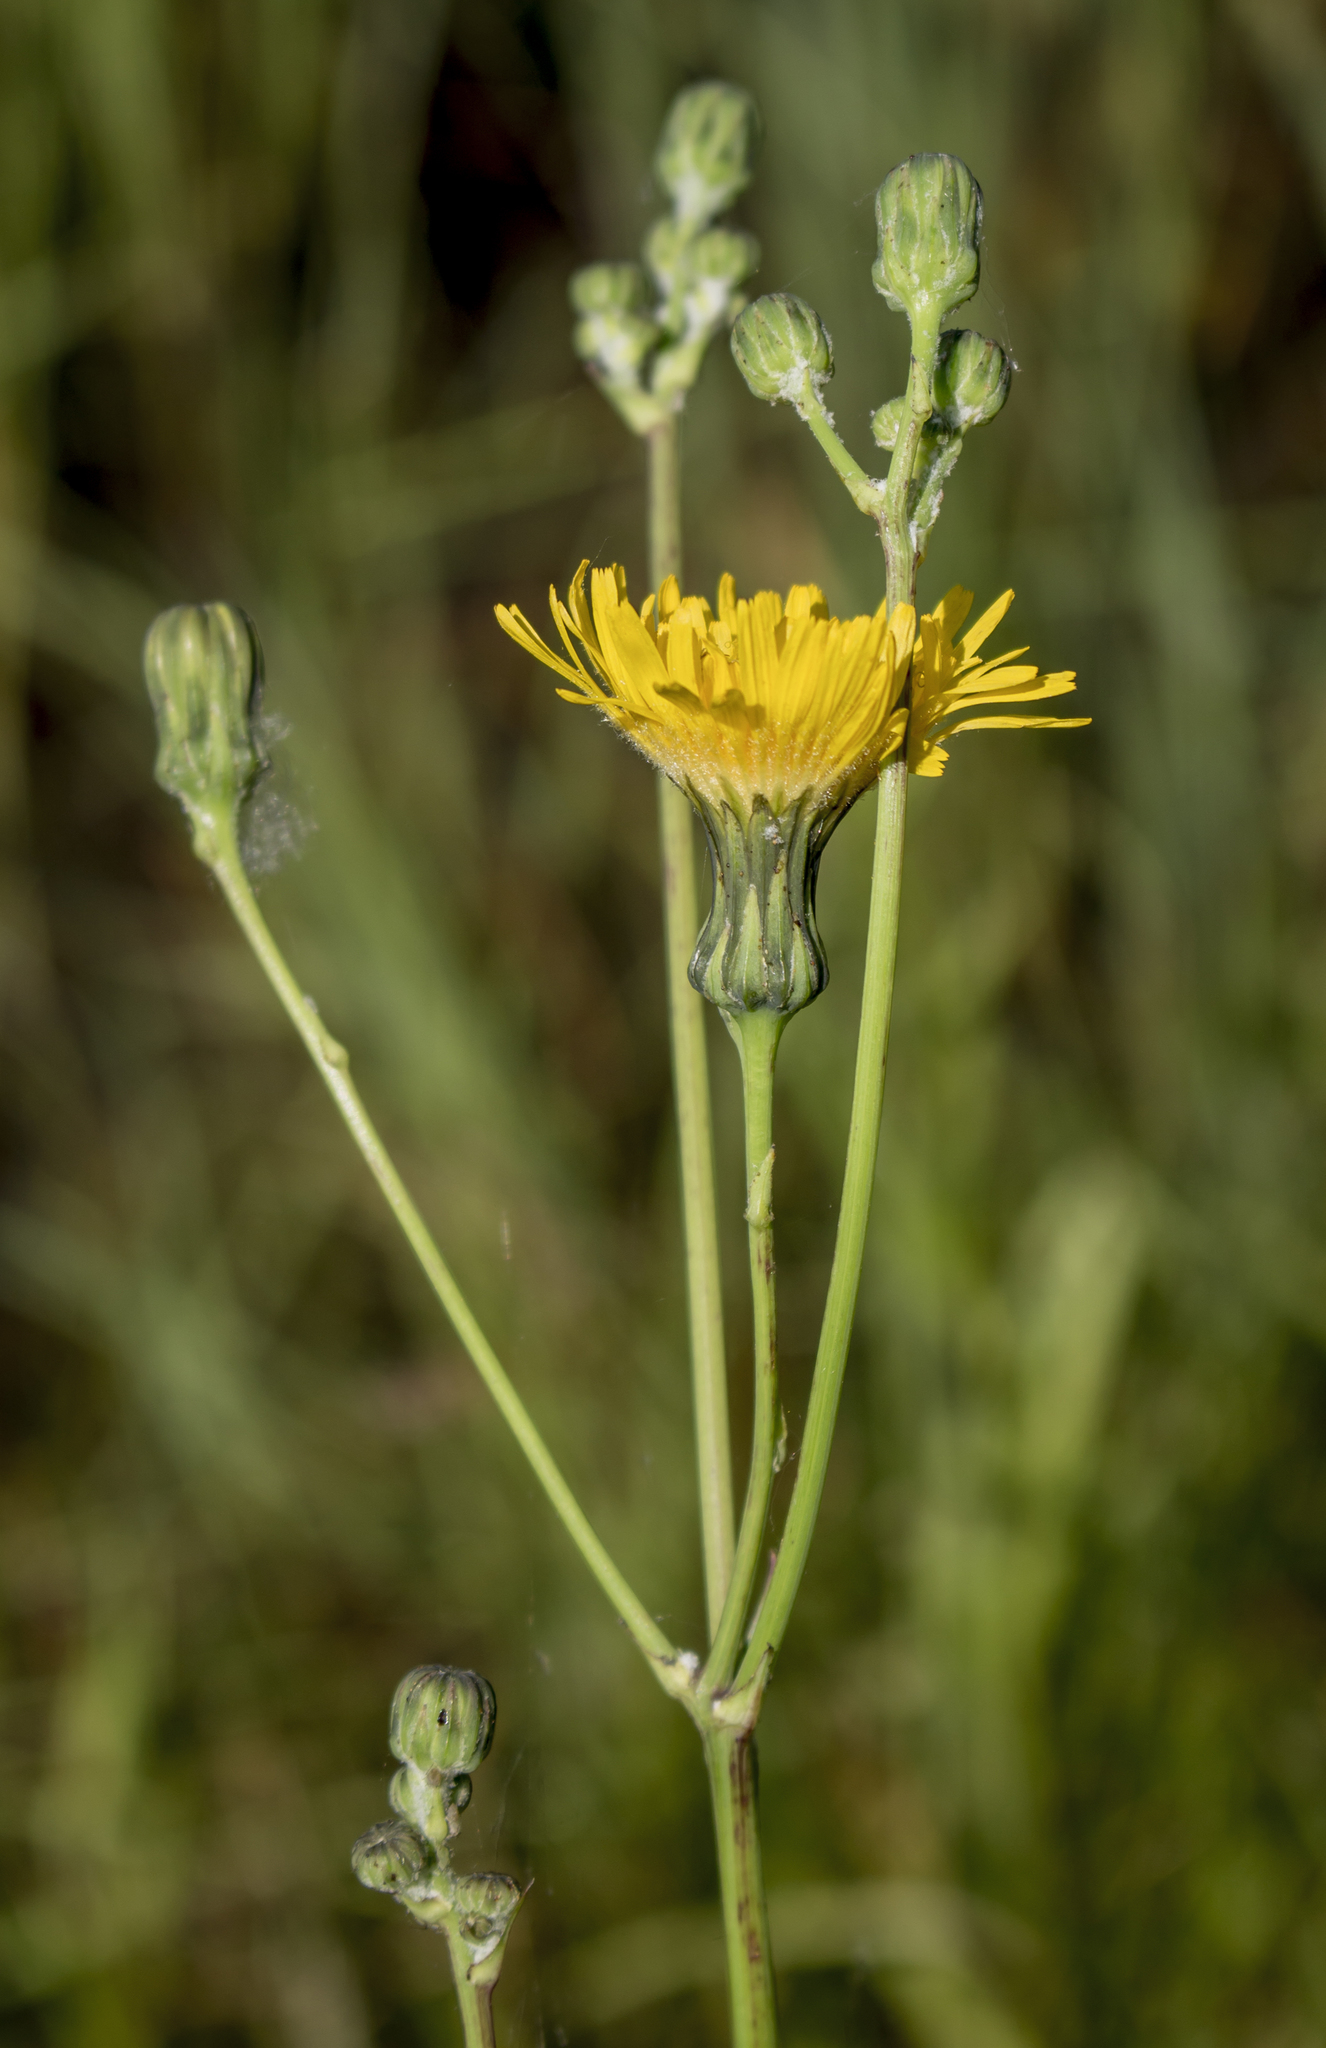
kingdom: Plantae
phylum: Tracheophyta
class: Magnoliopsida
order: Asterales
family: Asteraceae
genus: Sonchus
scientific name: Sonchus arvensis
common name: Perennial sow-thistle
